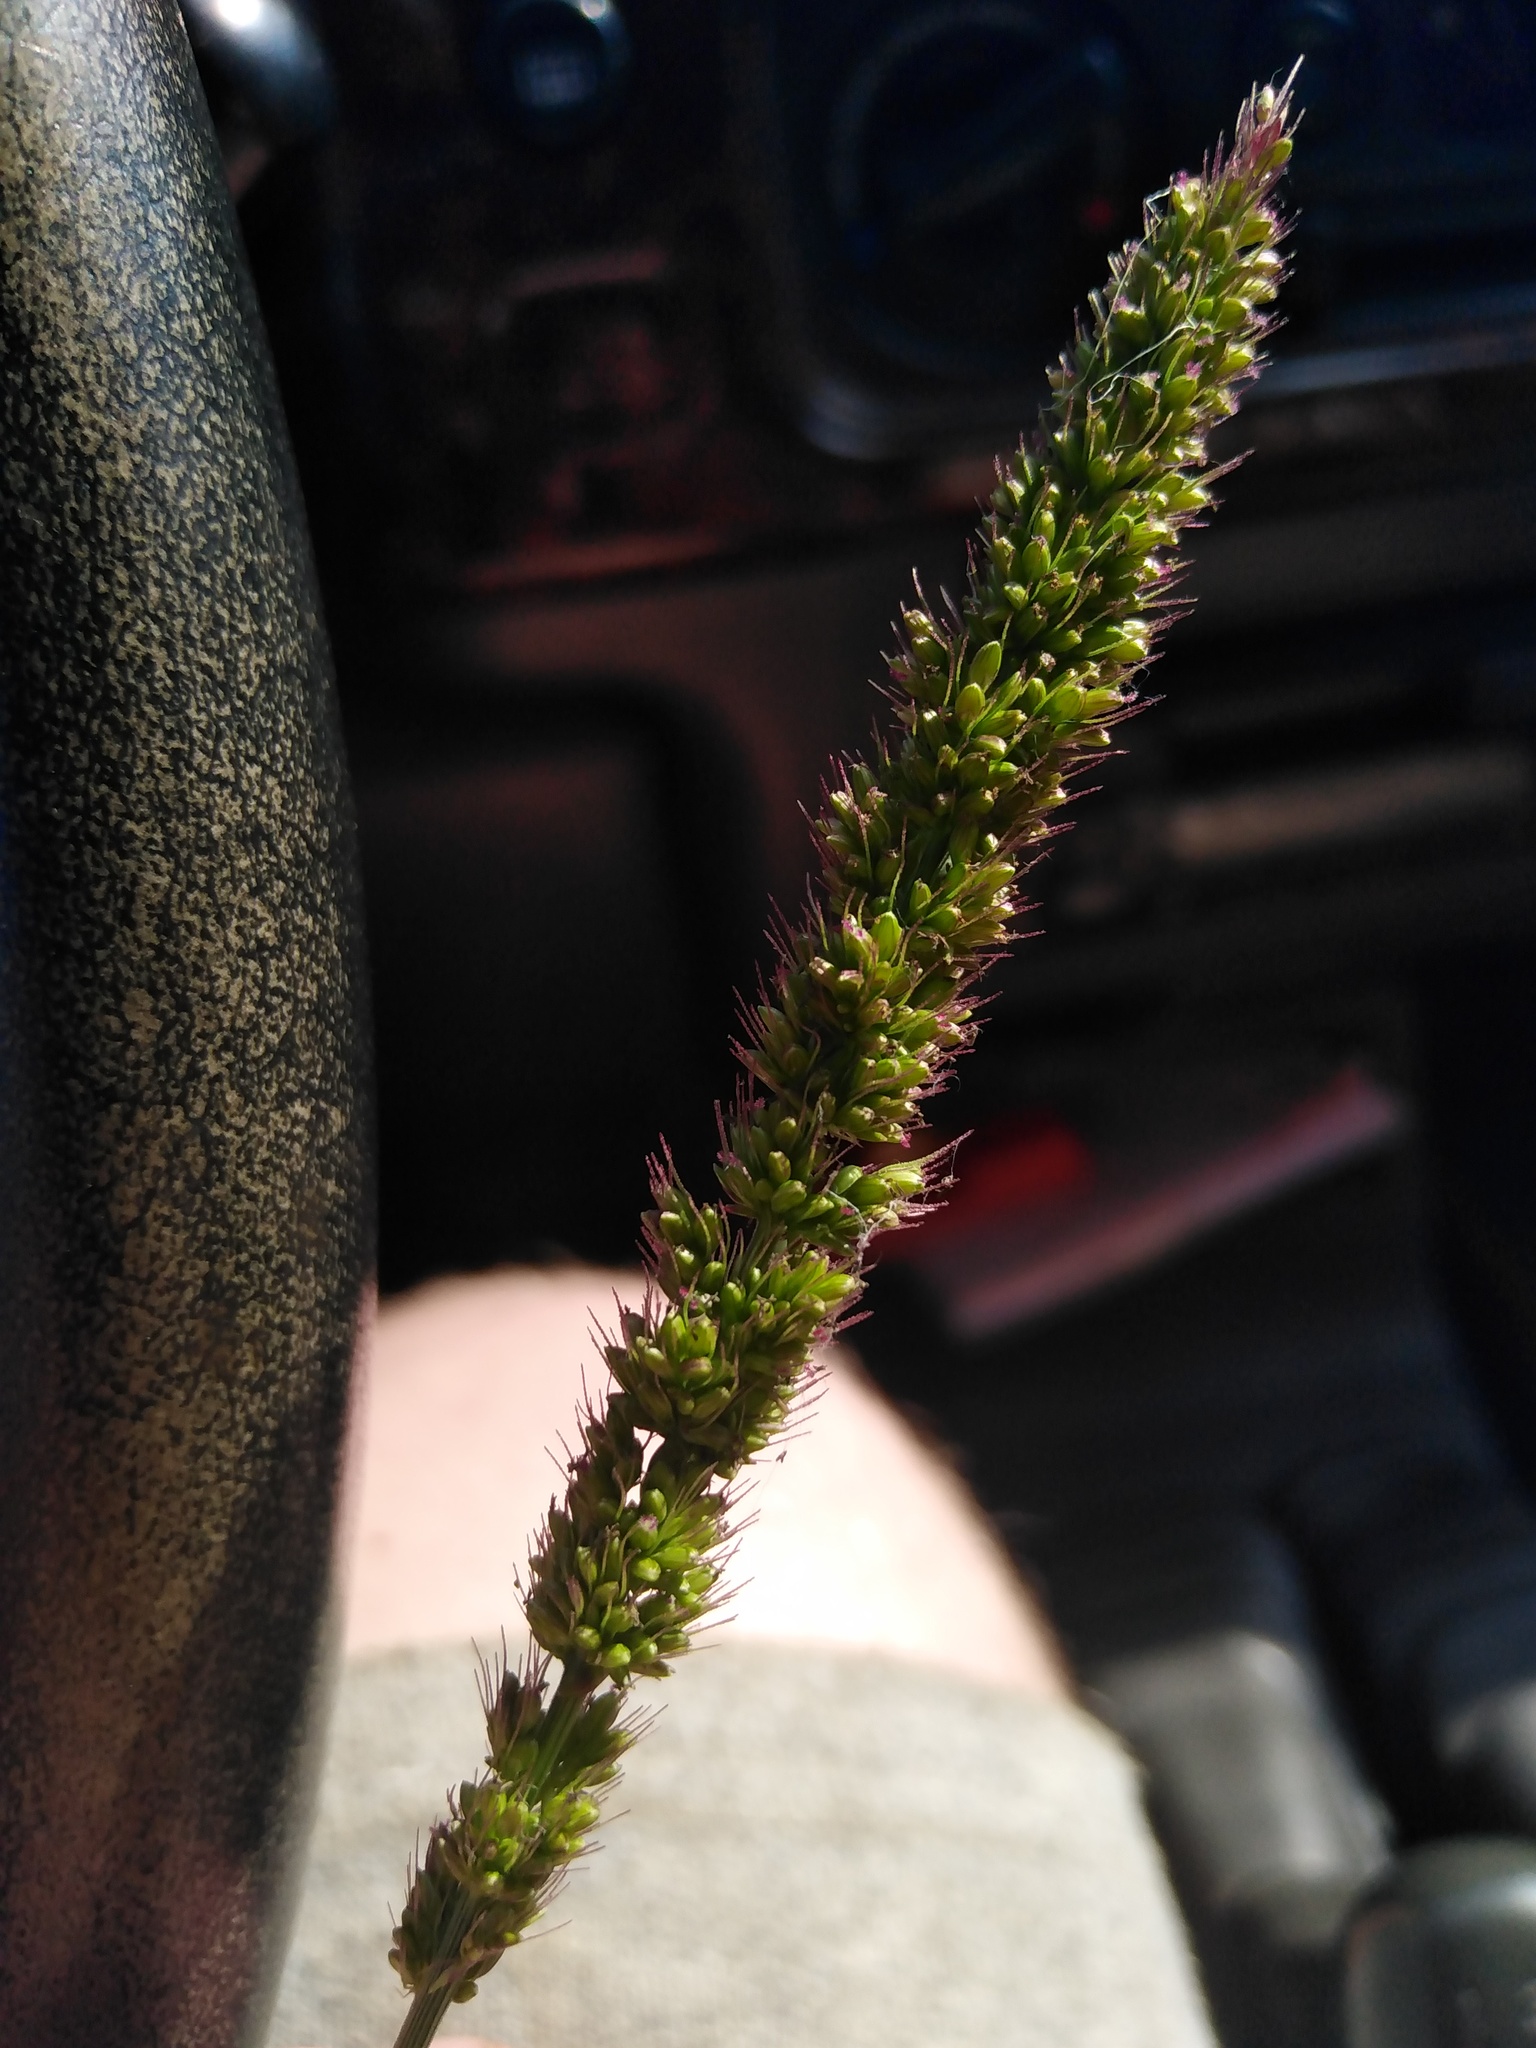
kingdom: Plantae
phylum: Tracheophyta
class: Liliopsida
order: Poales
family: Poaceae
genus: Setaria
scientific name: Setaria verticillata
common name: Hooked bristlegrass
